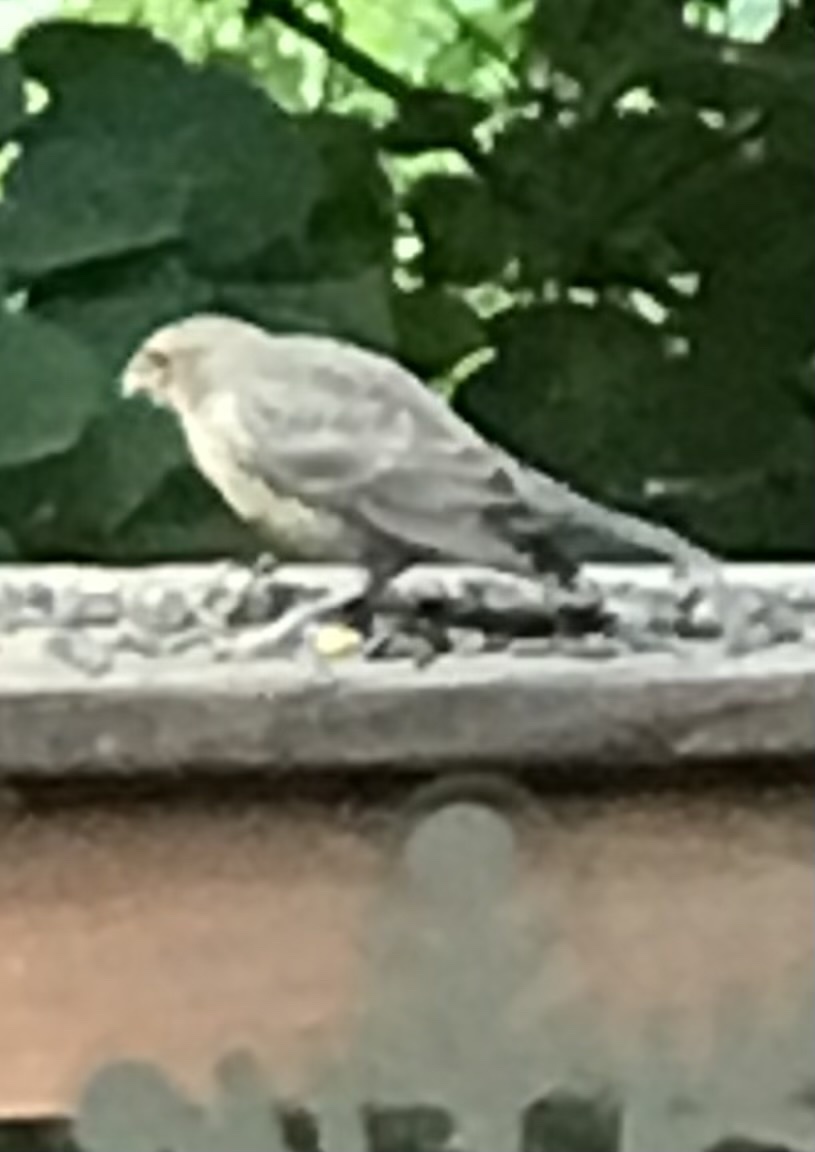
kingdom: Animalia
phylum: Chordata
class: Aves
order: Passeriformes
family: Icteridae
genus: Molothrus
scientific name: Molothrus ater
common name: Brown-headed cowbird
